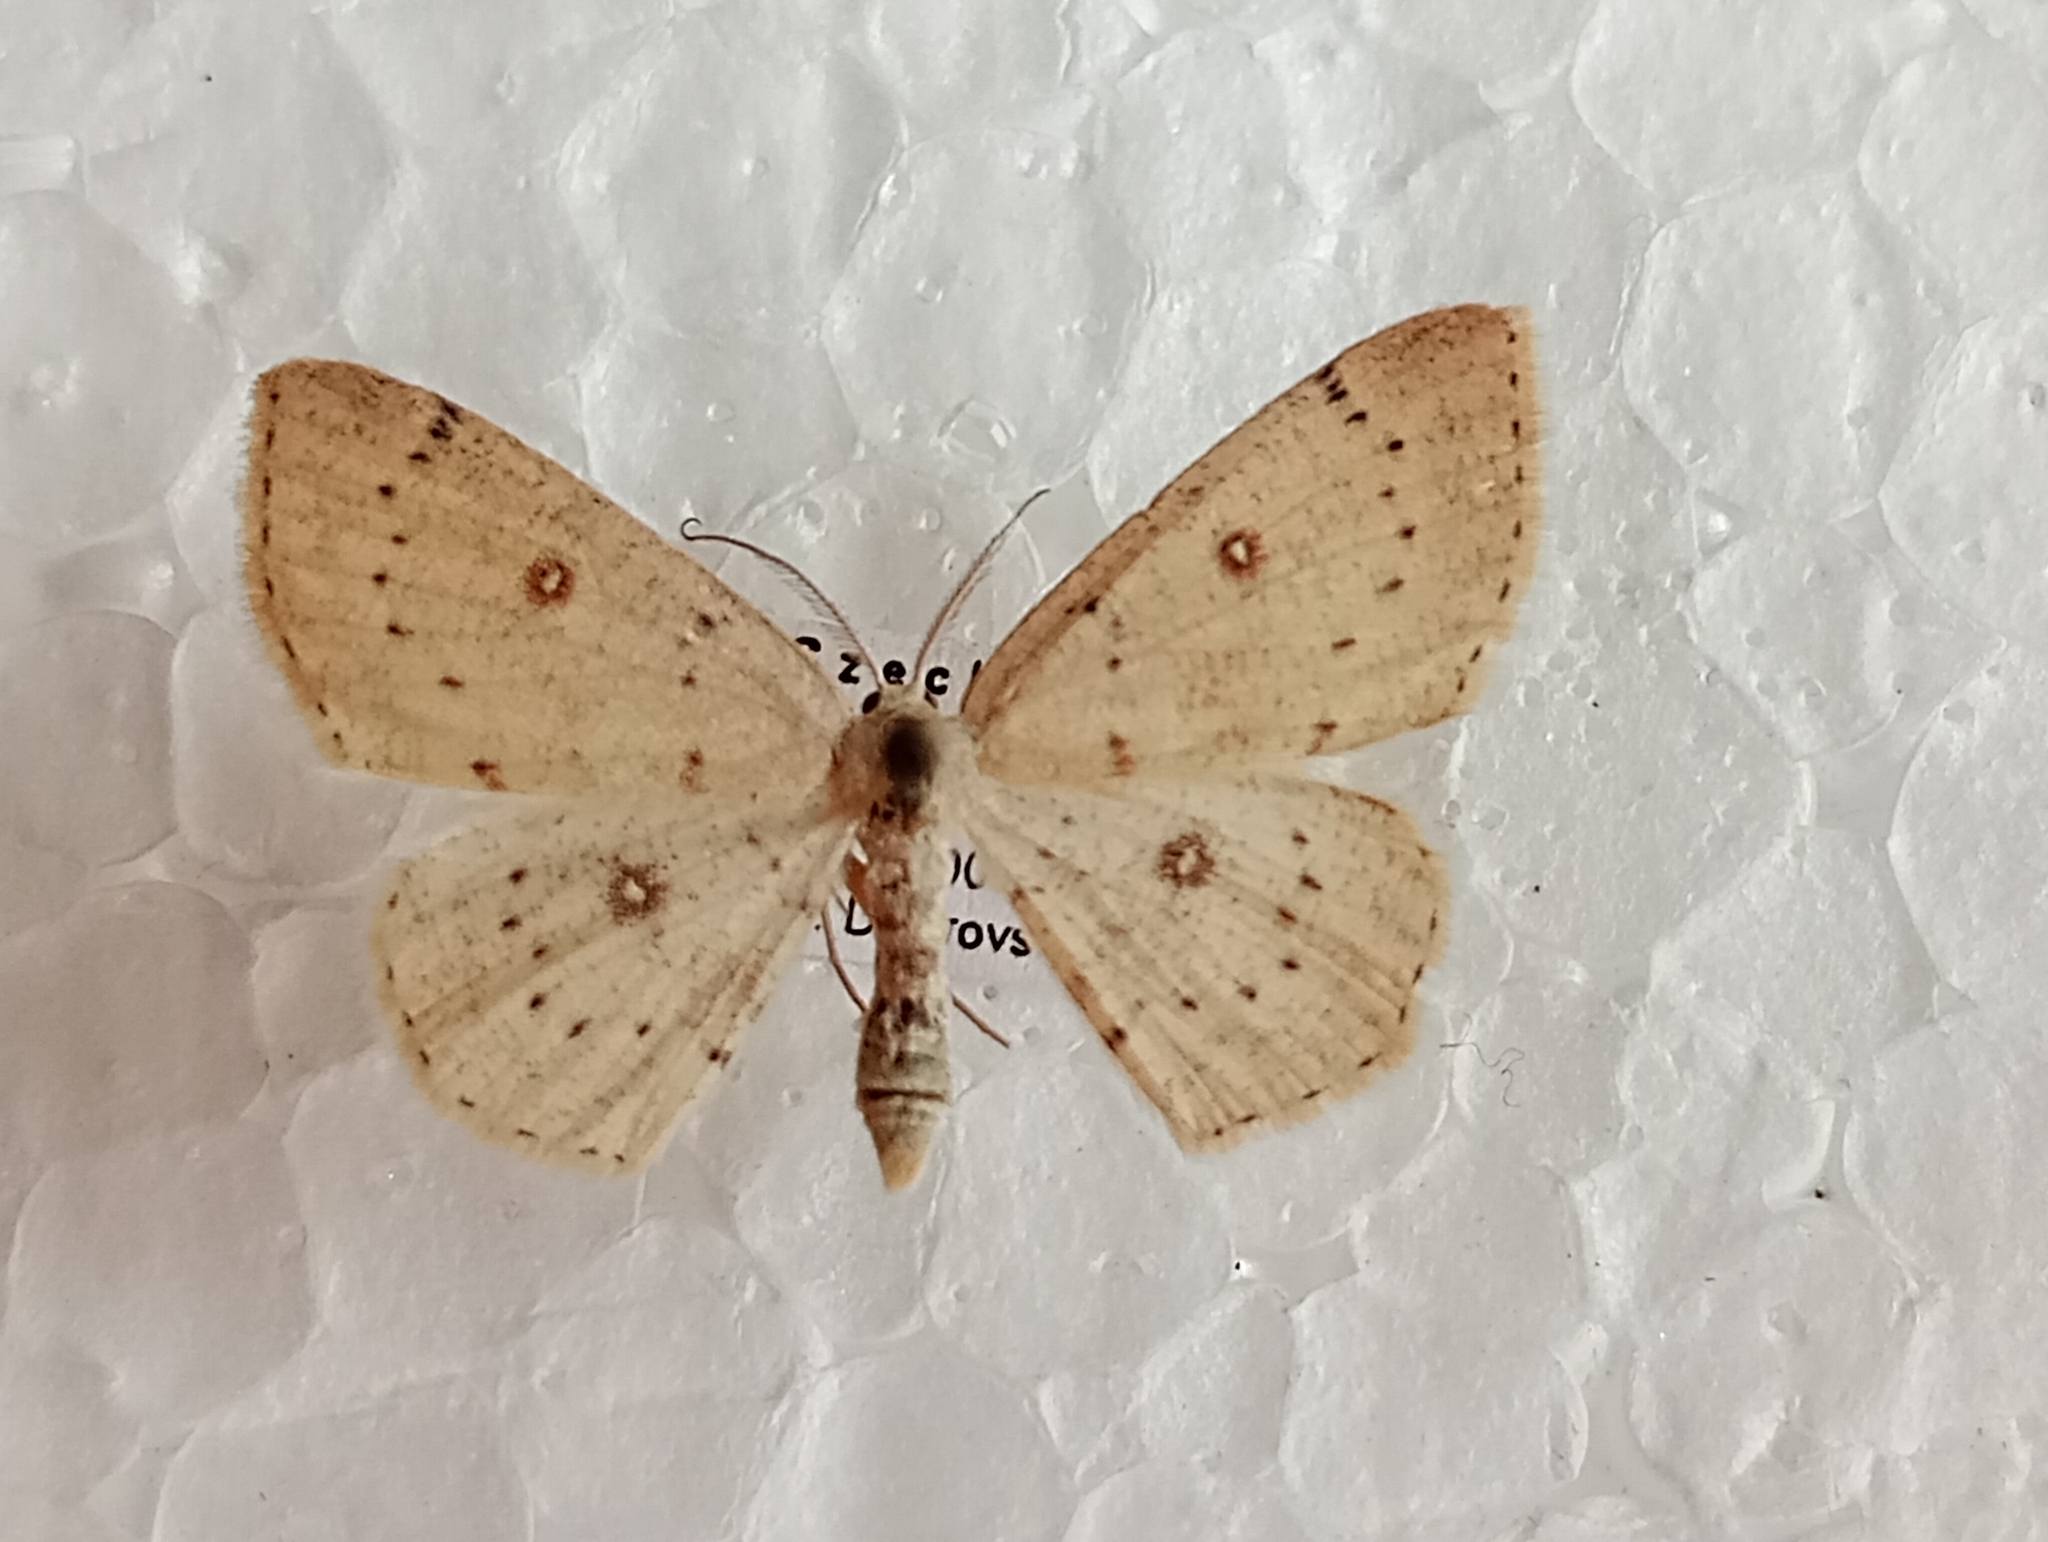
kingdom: Animalia
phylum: Arthropoda
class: Insecta
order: Lepidoptera
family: Geometridae
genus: Cyclophora
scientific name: Cyclophora albipunctata
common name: Birch mocha
